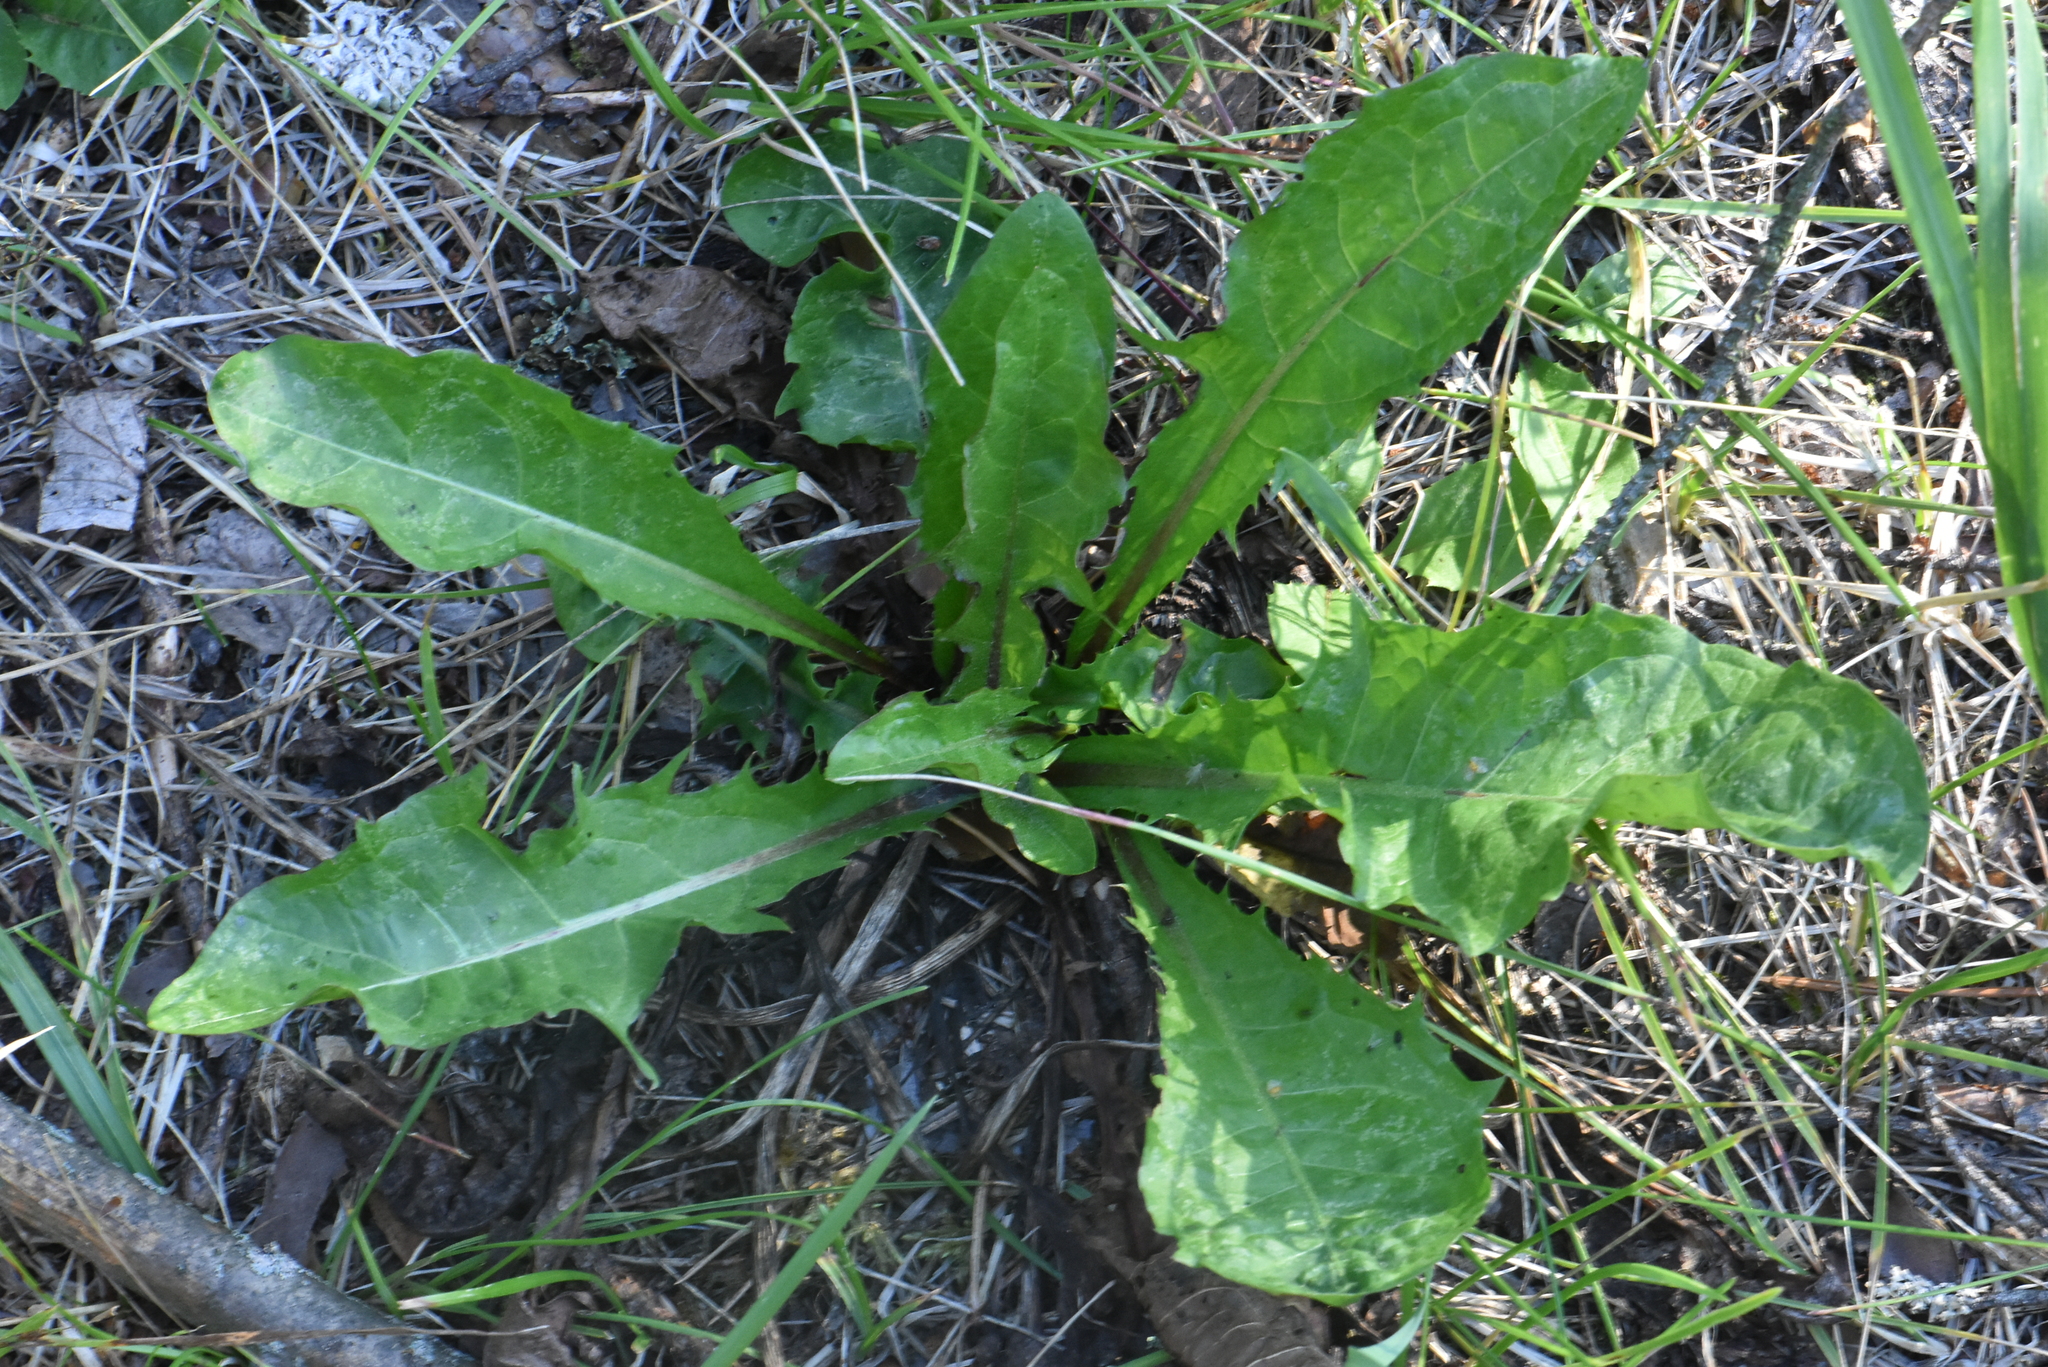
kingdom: Plantae
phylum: Tracheophyta
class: Magnoliopsida
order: Asterales
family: Asteraceae
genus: Taraxacum
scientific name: Taraxacum officinale
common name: Common dandelion
